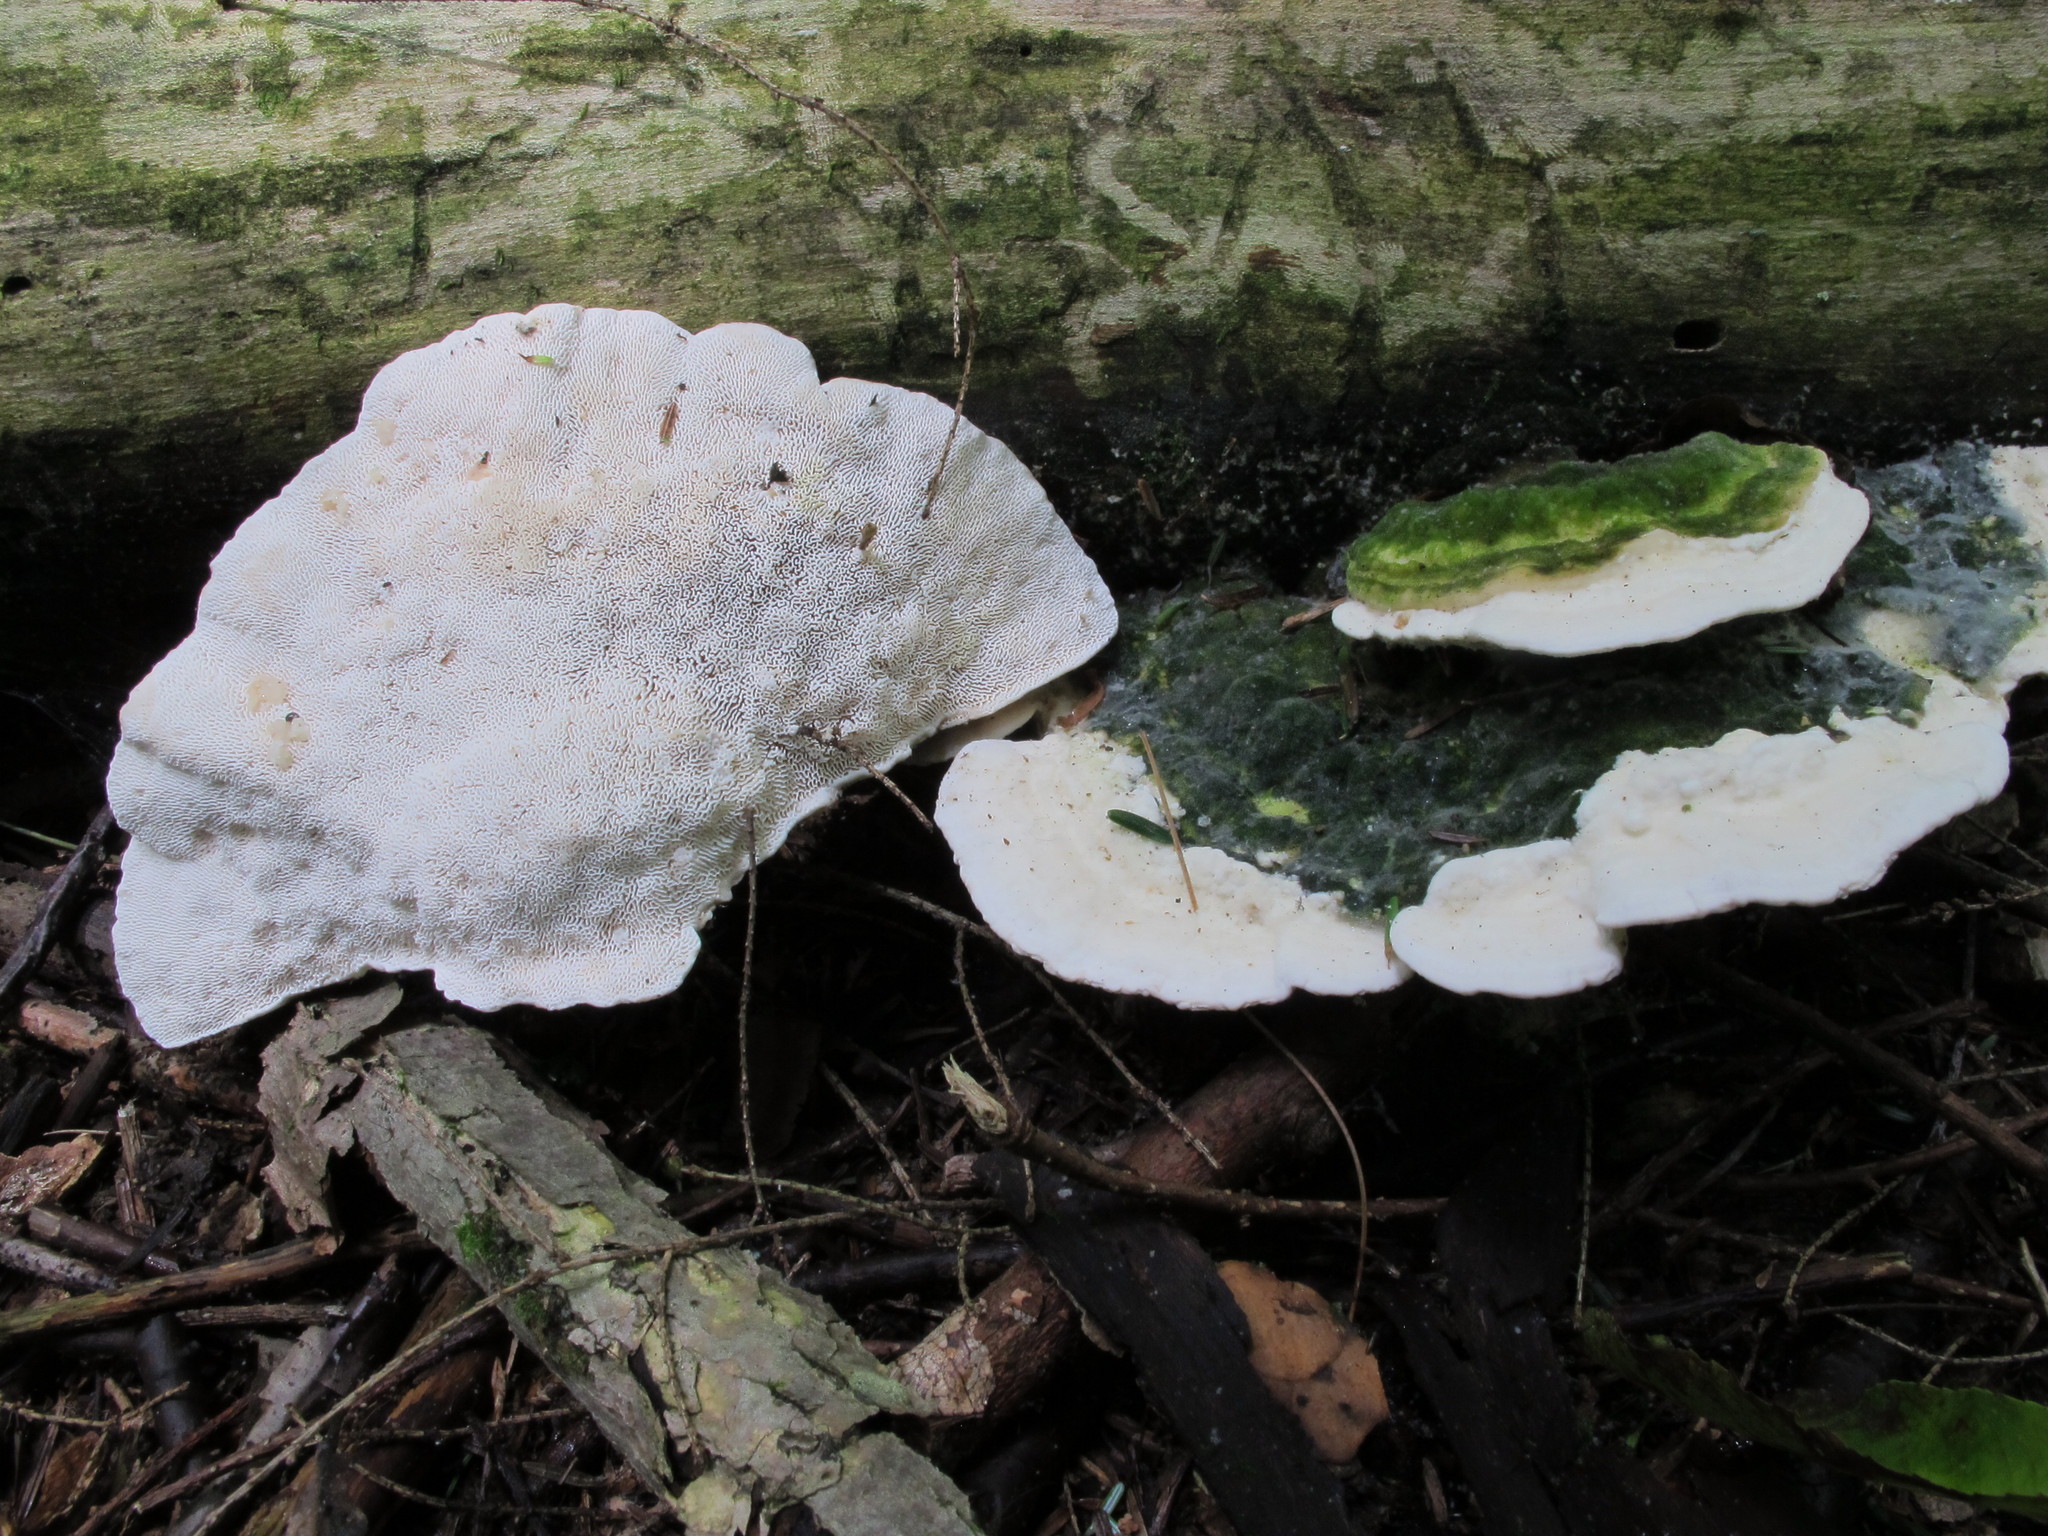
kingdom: Fungi
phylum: Basidiomycota
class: Agaricomycetes
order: Polyporales
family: Polyporaceae
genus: Trametes
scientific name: Trametes gibbosa
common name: Lumpy bracket
